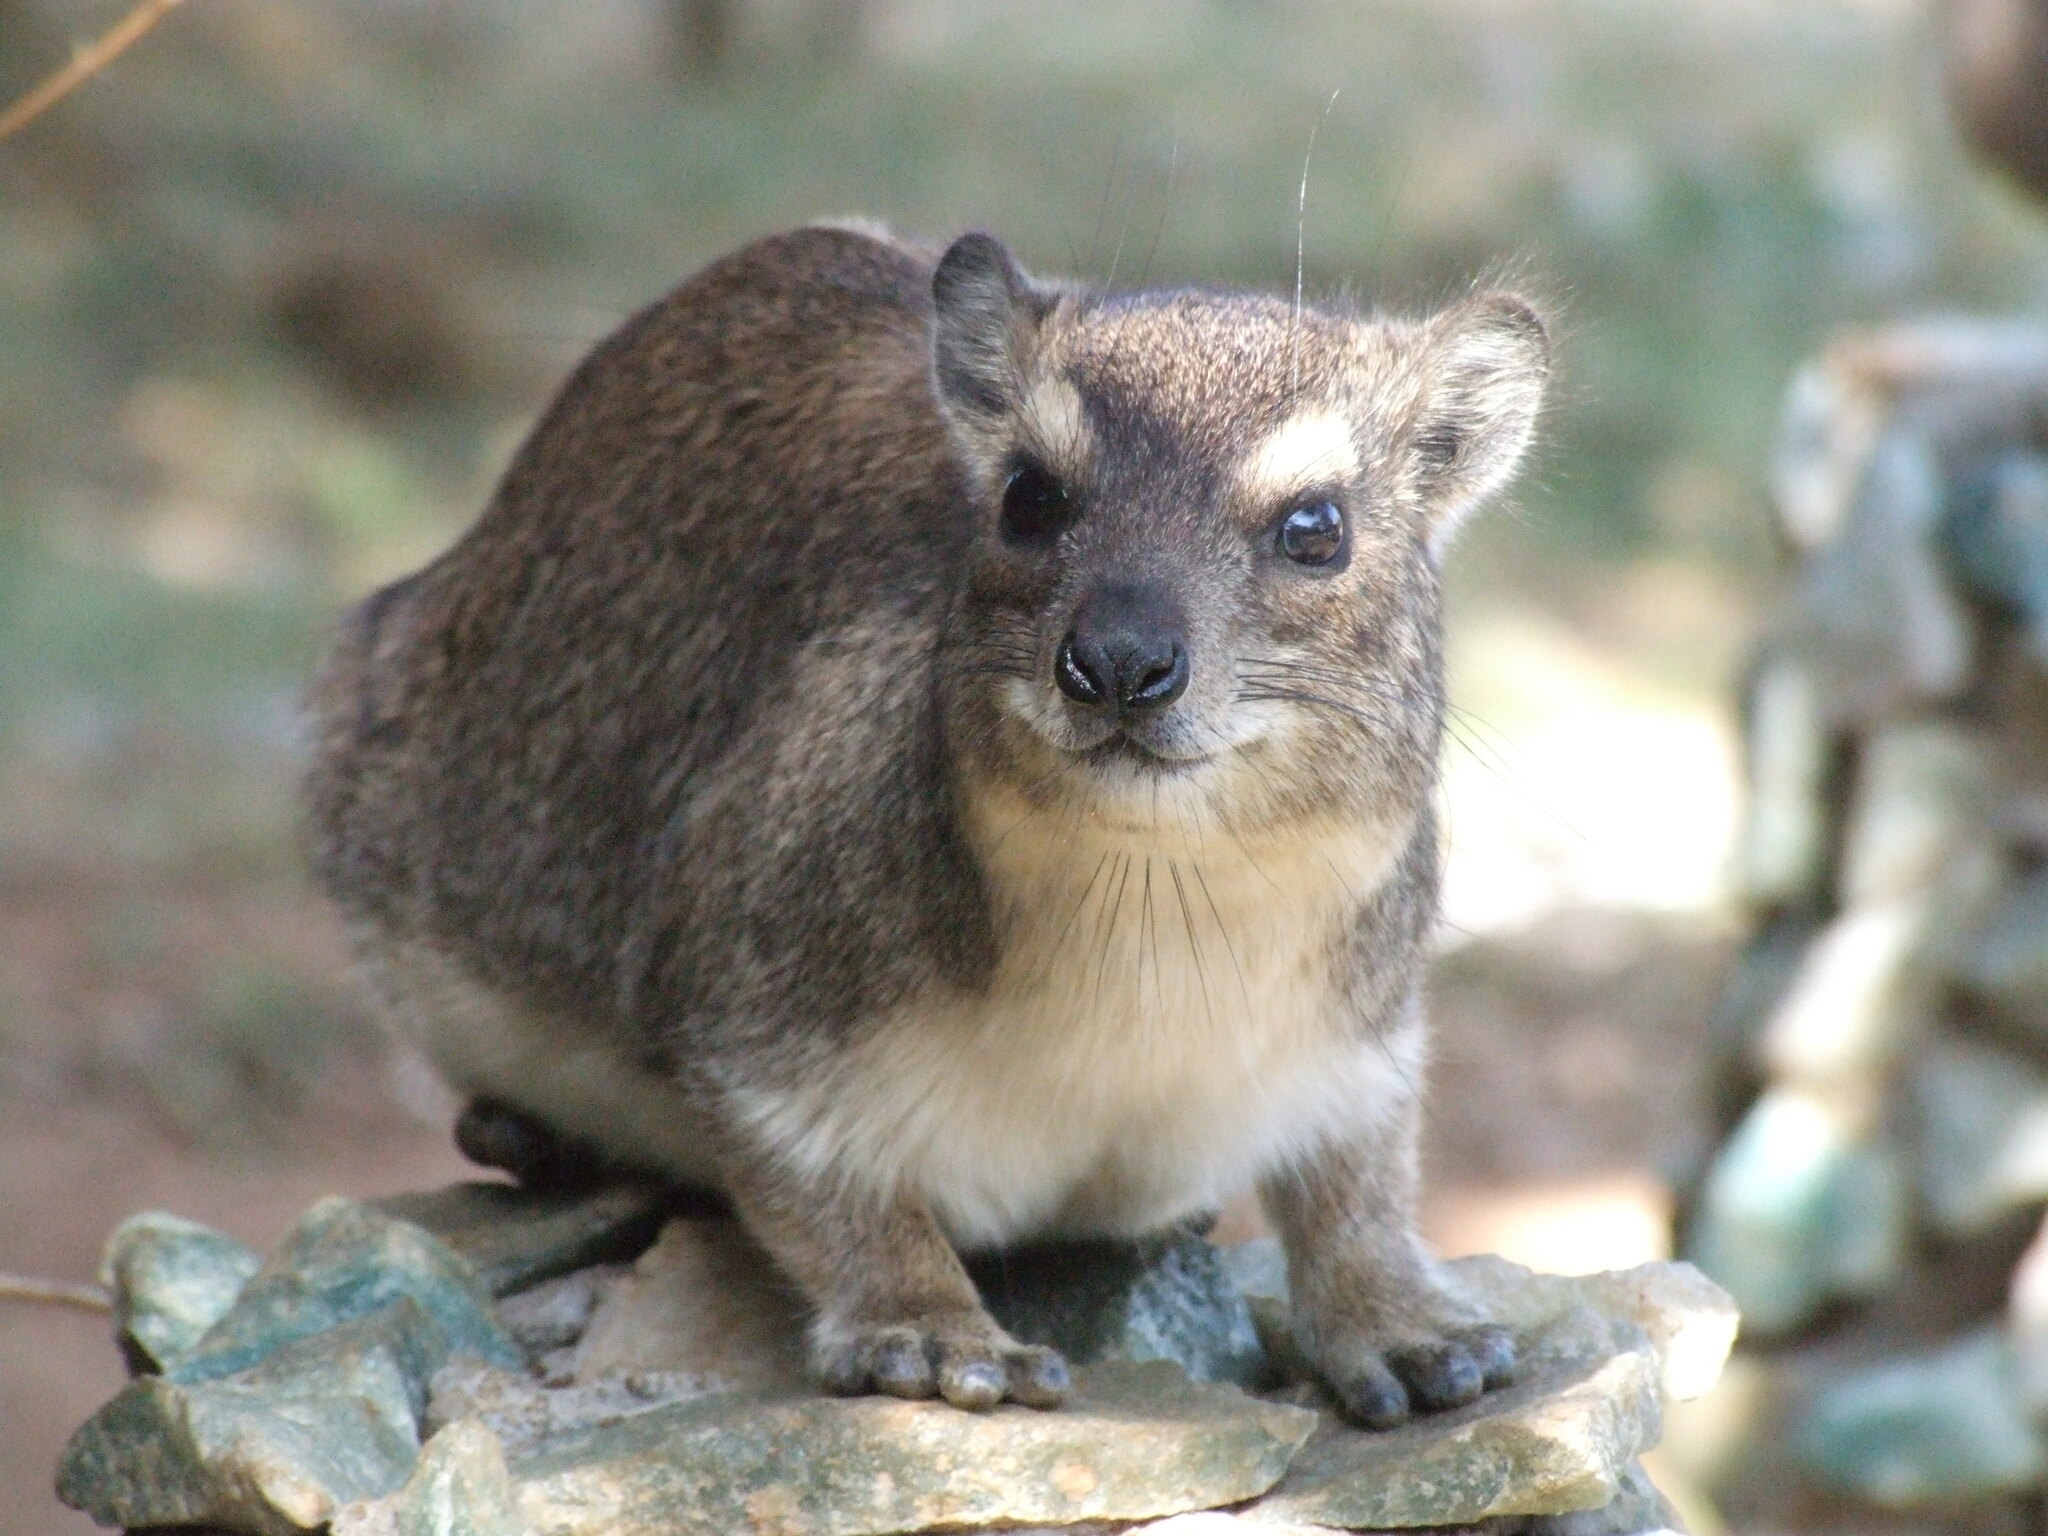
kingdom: Animalia
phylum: Chordata
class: Mammalia
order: Hyracoidea
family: Procaviidae
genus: Heterohyrax
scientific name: Heterohyrax brucei
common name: Bush hyrax
